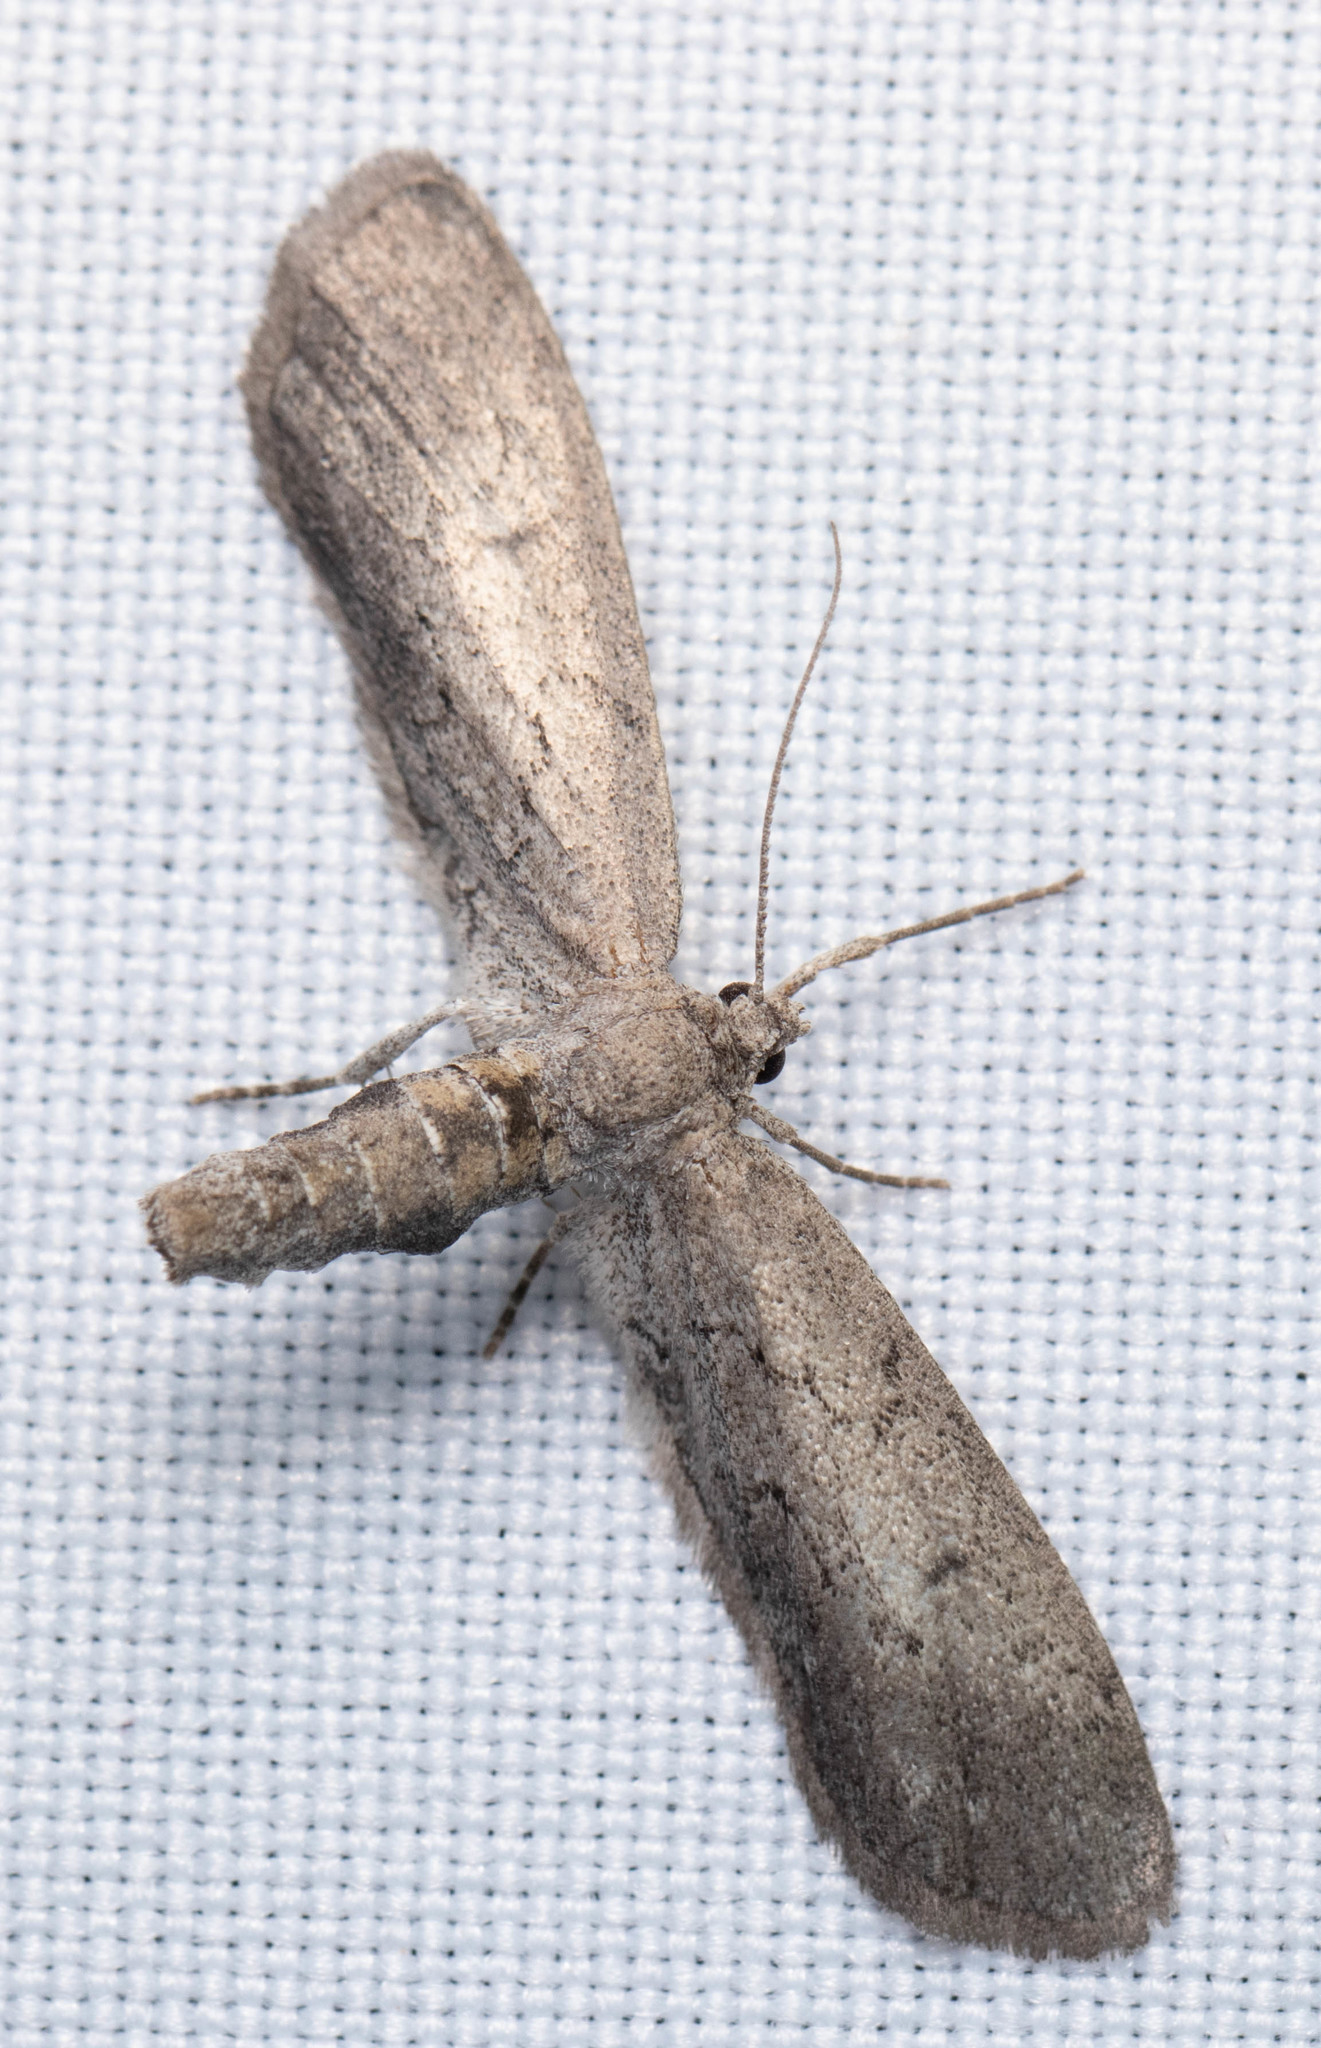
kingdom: Animalia
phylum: Arthropoda
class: Insecta
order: Lepidoptera
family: Geometridae
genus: Glaucina
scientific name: Glaucina erroraria
